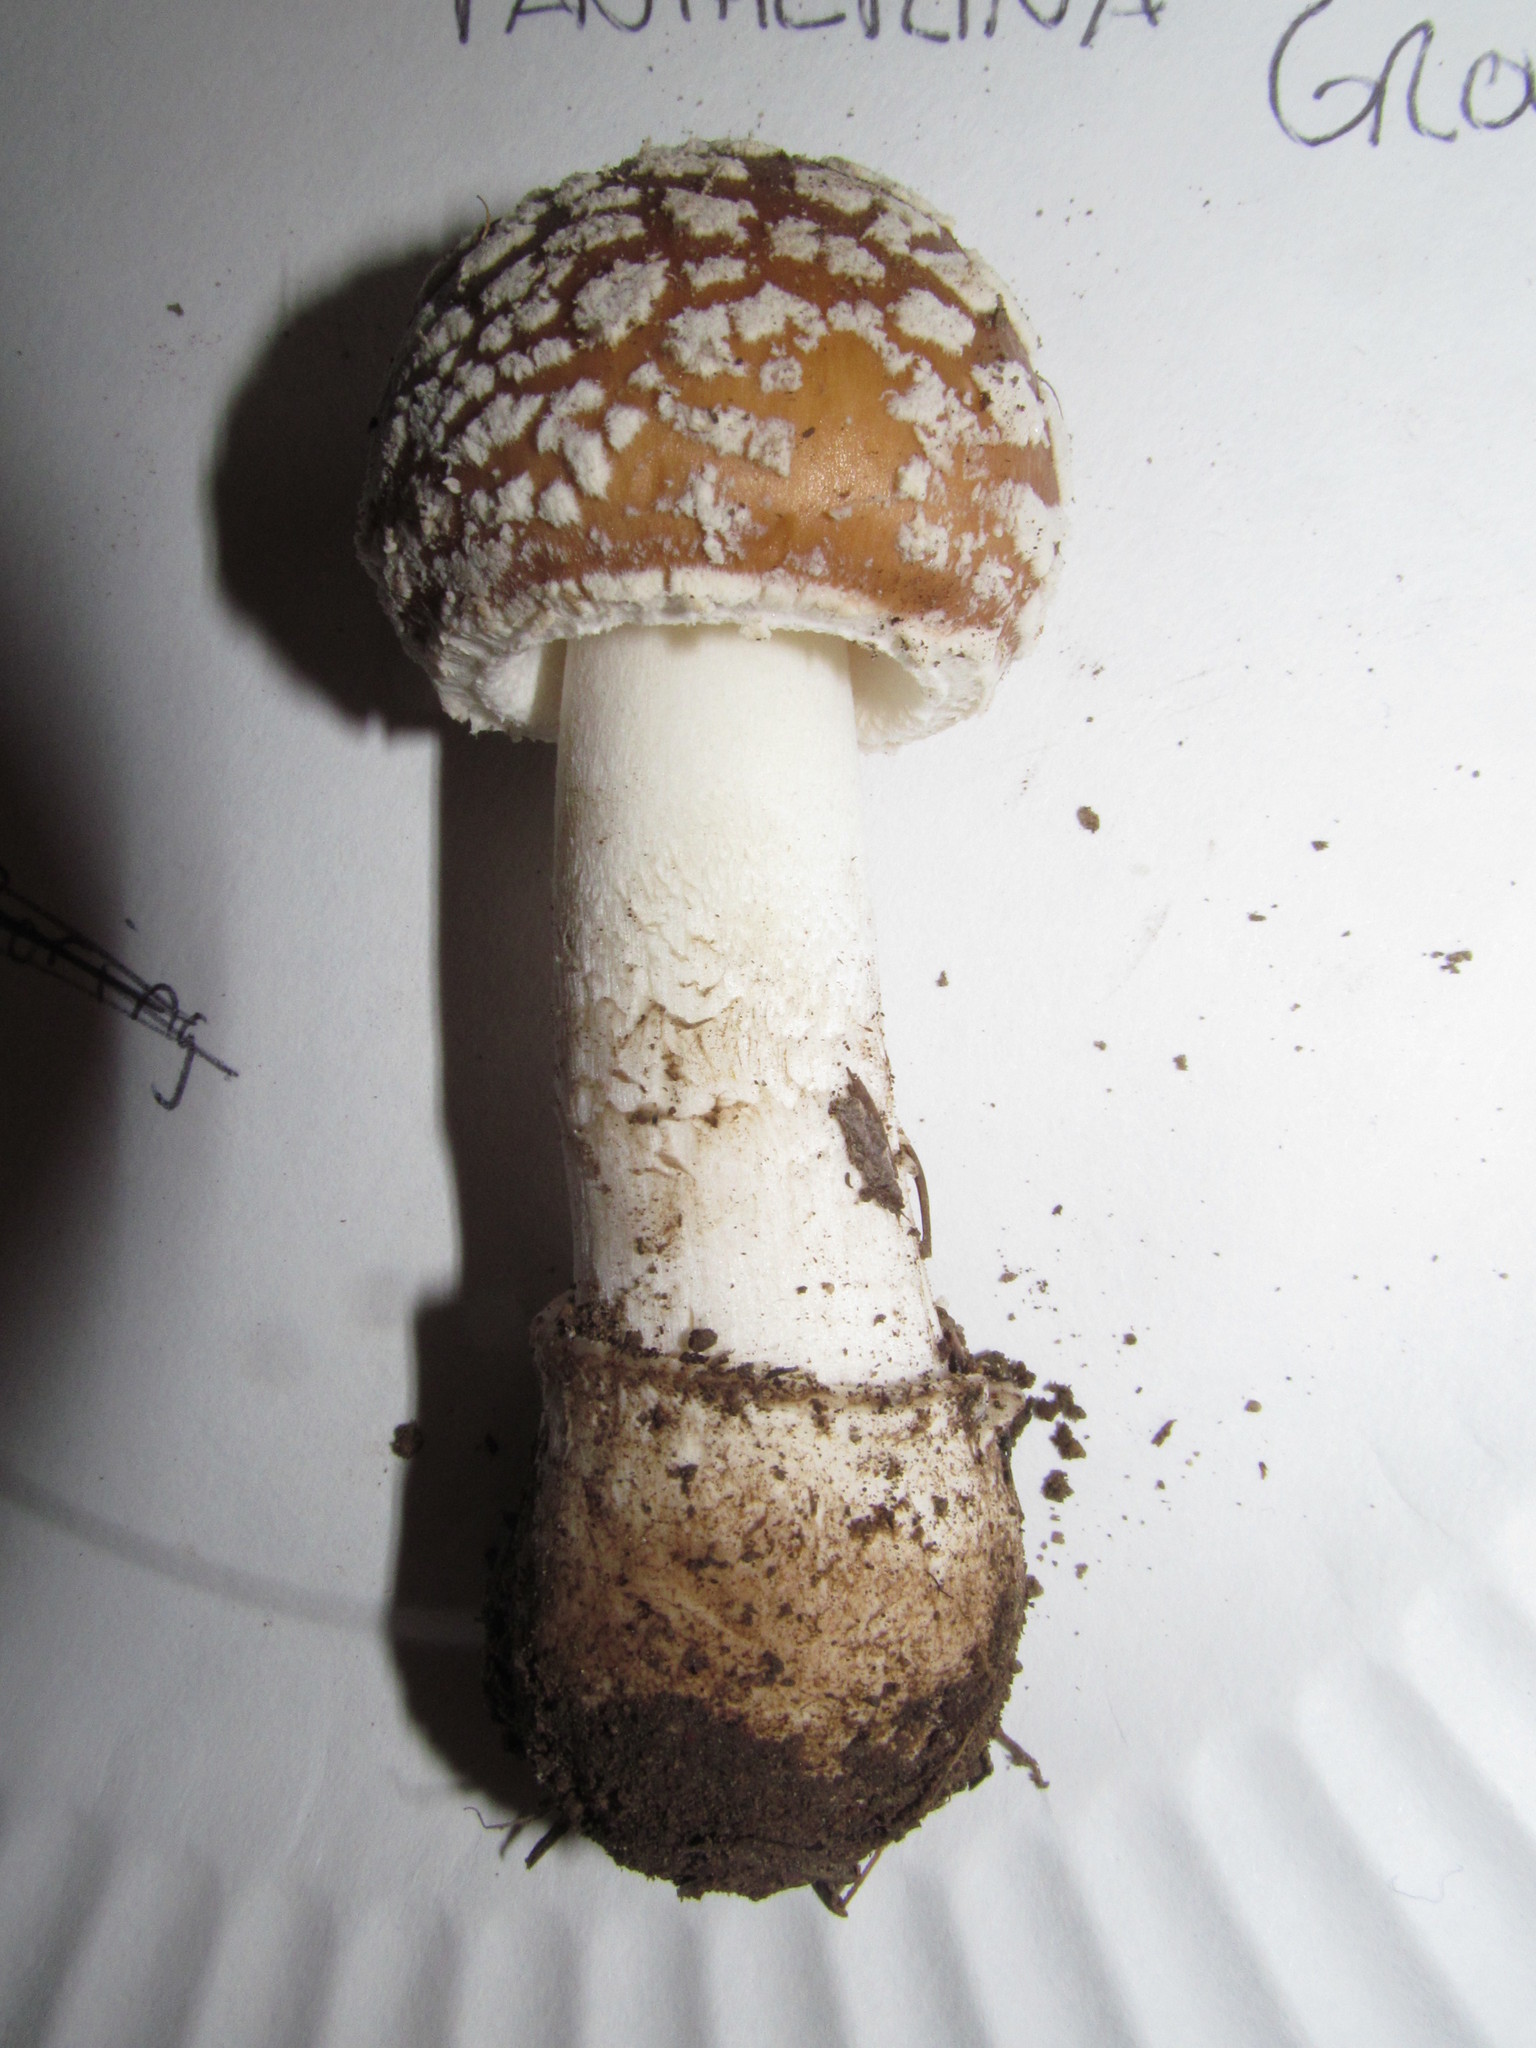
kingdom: Fungi
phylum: Basidiomycota
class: Agaricomycetes
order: Agaricales
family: Amanitaceae
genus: Amanita
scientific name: Amanita pantherina
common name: Panthercap
